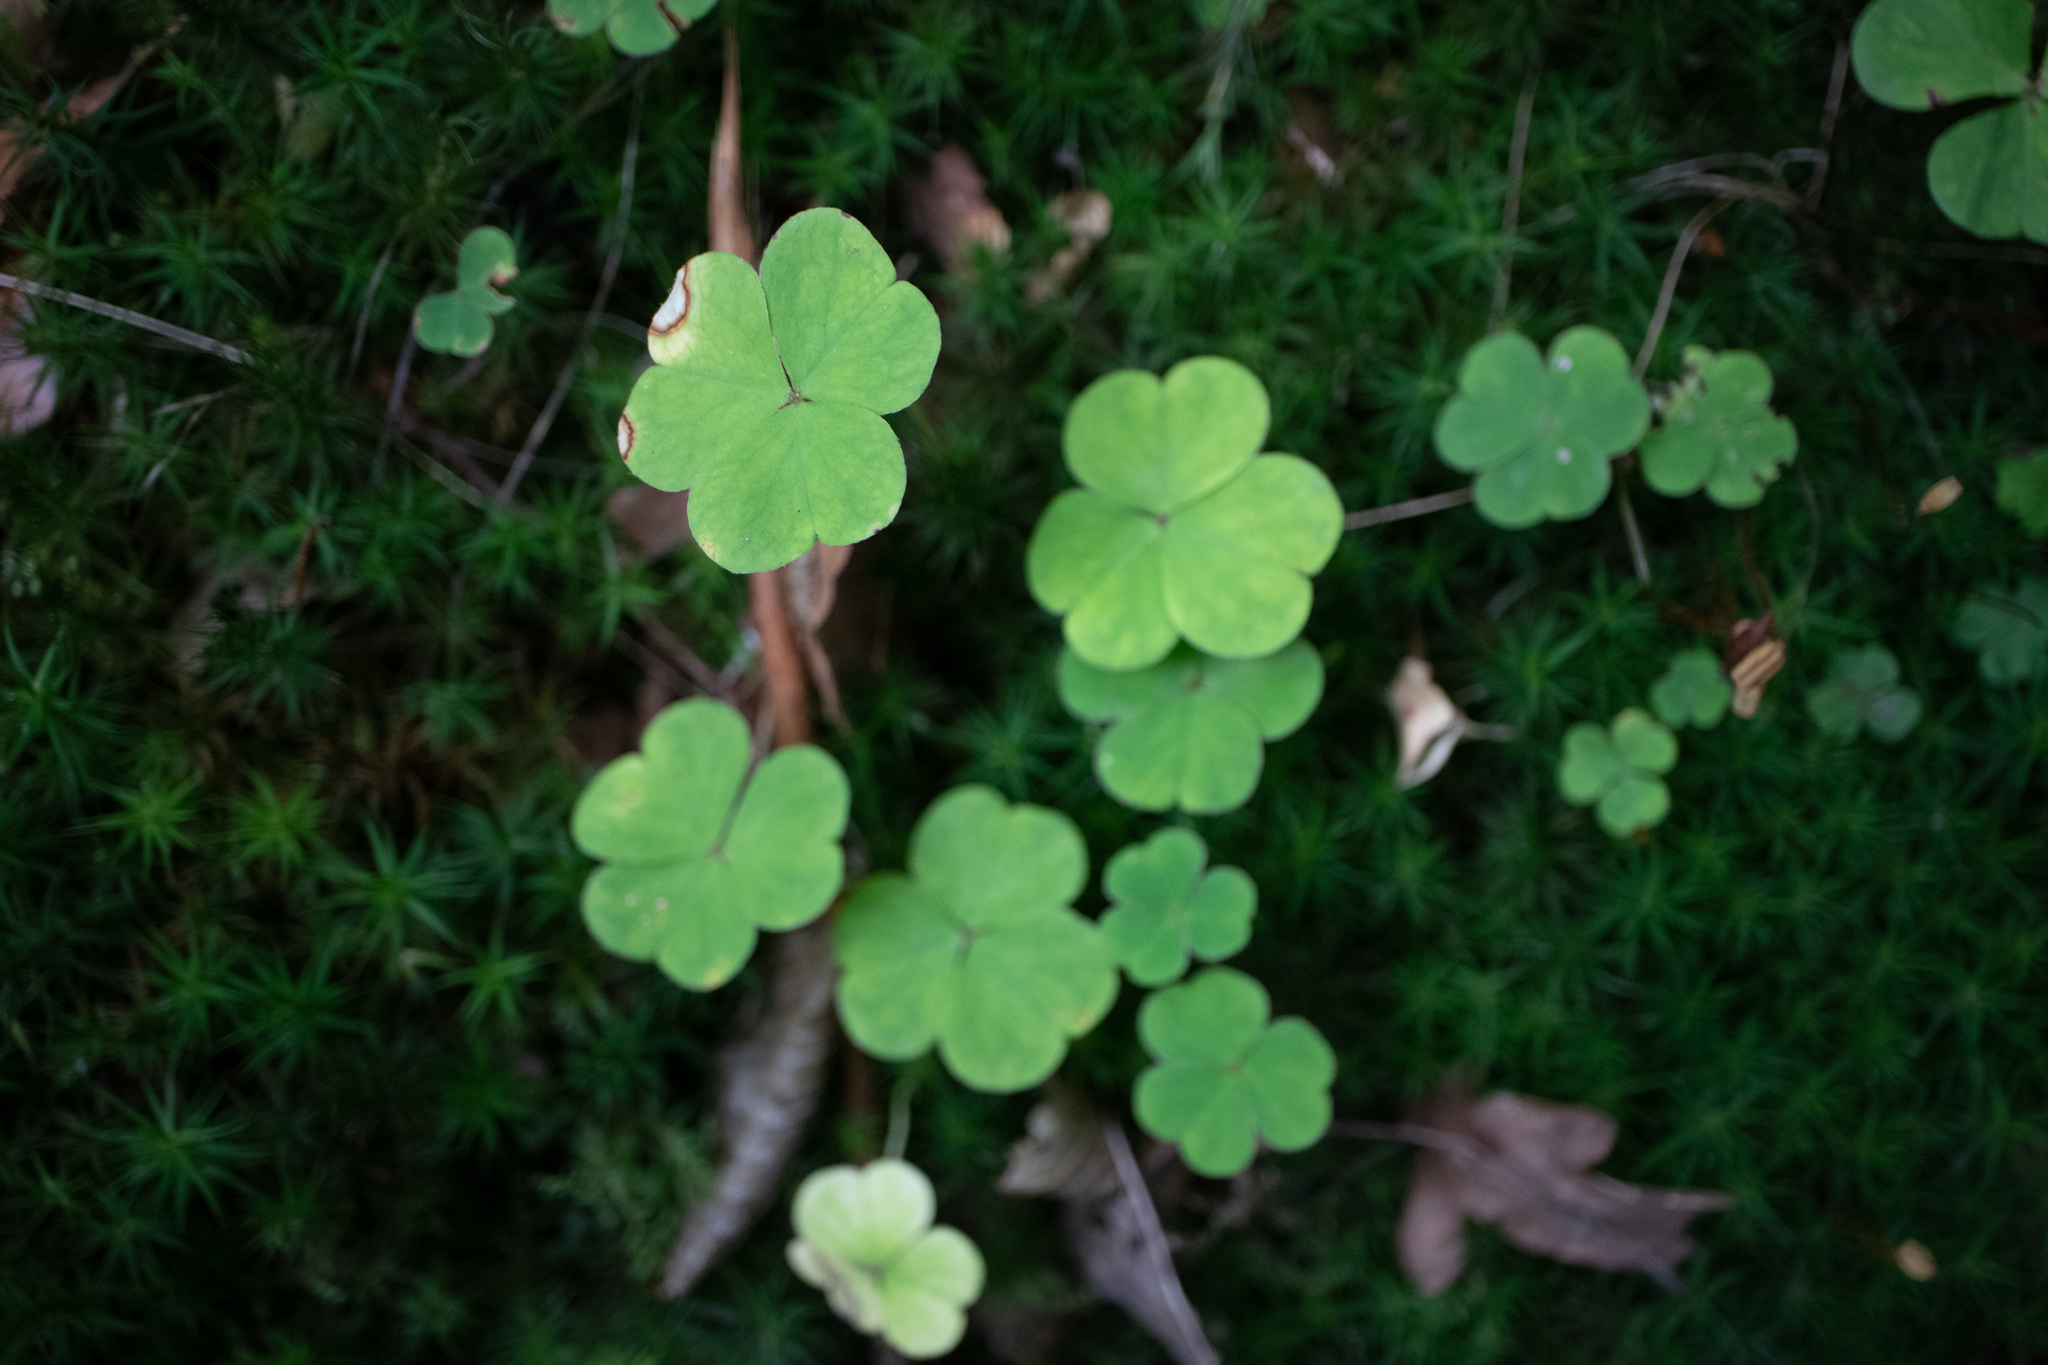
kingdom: Plantae
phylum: Tracheophyta
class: Magnoliopsida
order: Oxalidales
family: Oxalidaceae
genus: Oxalis
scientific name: Oxalis acetosella
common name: Wood-sorrel
